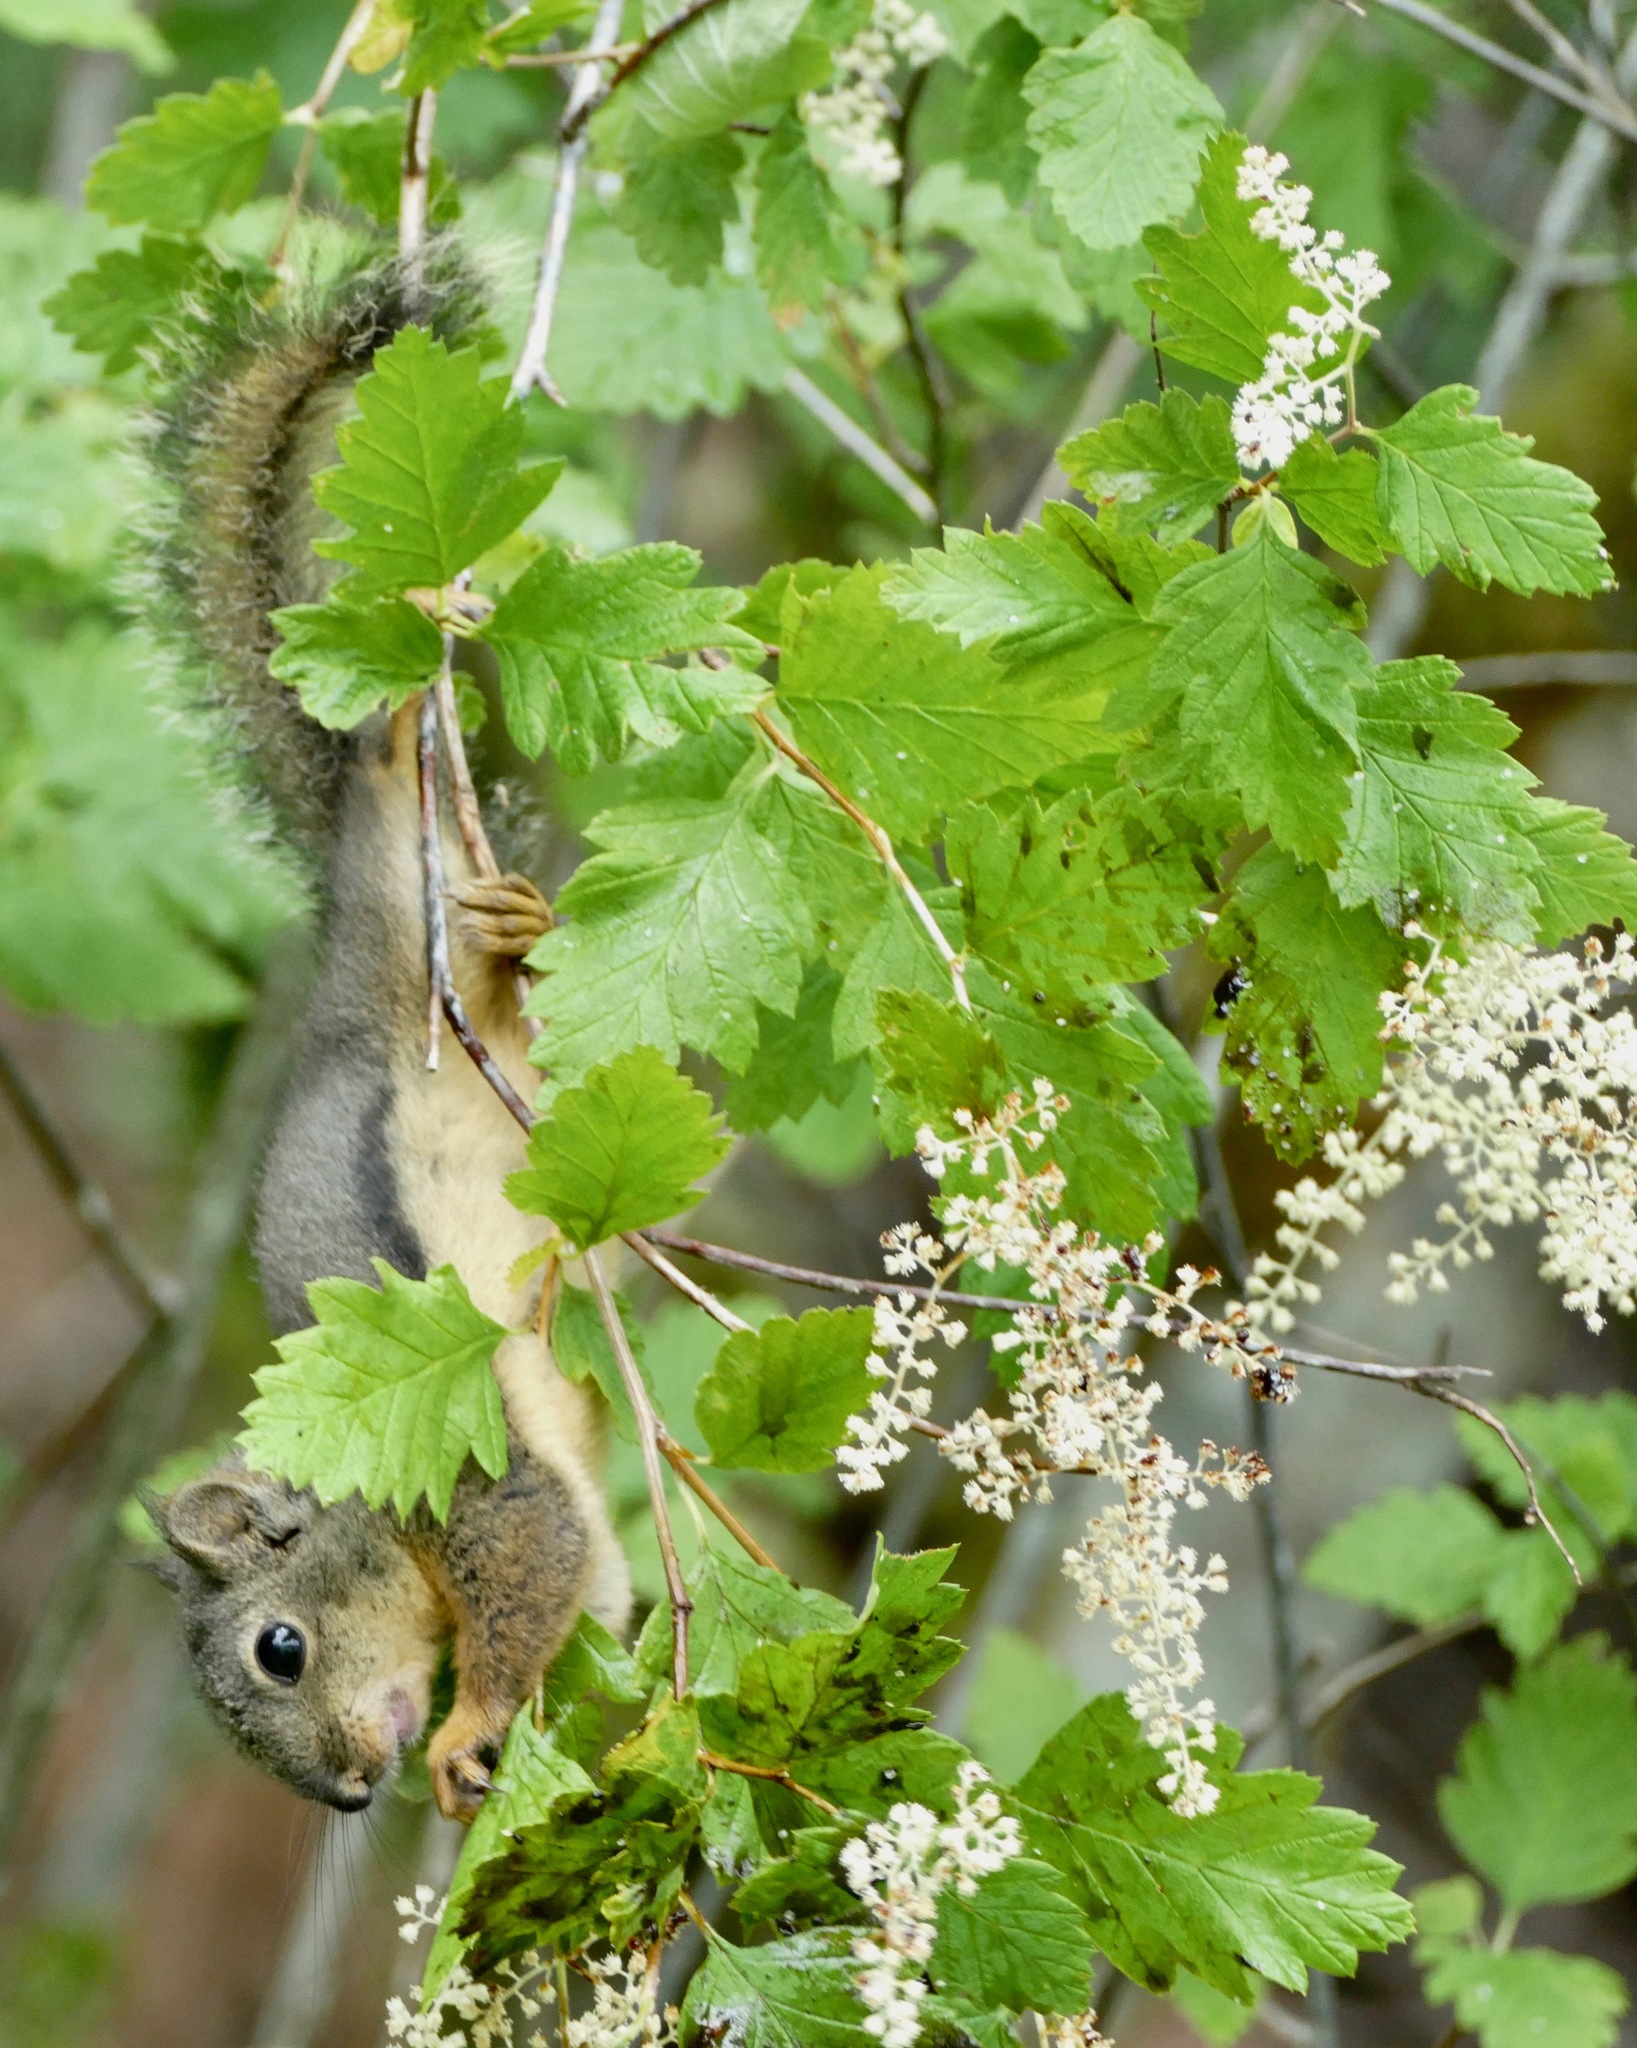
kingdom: Animalia
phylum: Chordata
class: Mammalia
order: Rodentia
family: Sciuridae
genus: Tamiasciurus
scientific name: Tamiasciurus douglasii
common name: Douglas's squirrel
